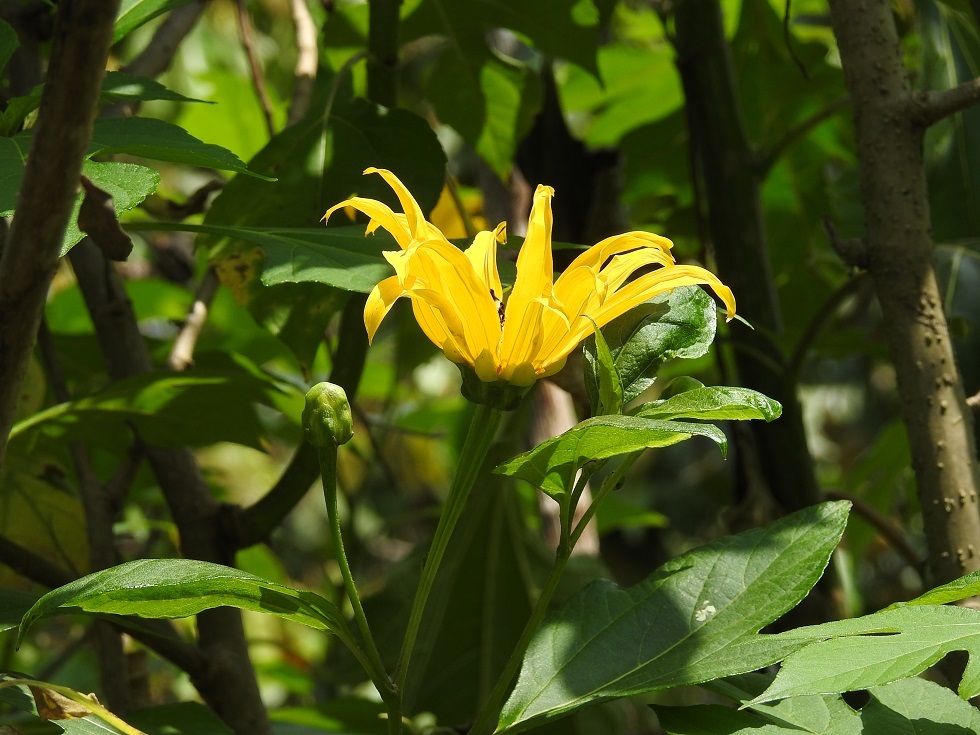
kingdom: Plantae
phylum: Tracheophyta
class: Magnoliopsida
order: Asterales
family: Asteraceae
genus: Tithonia
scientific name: Tithonia diversifolia
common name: Tree marigold
